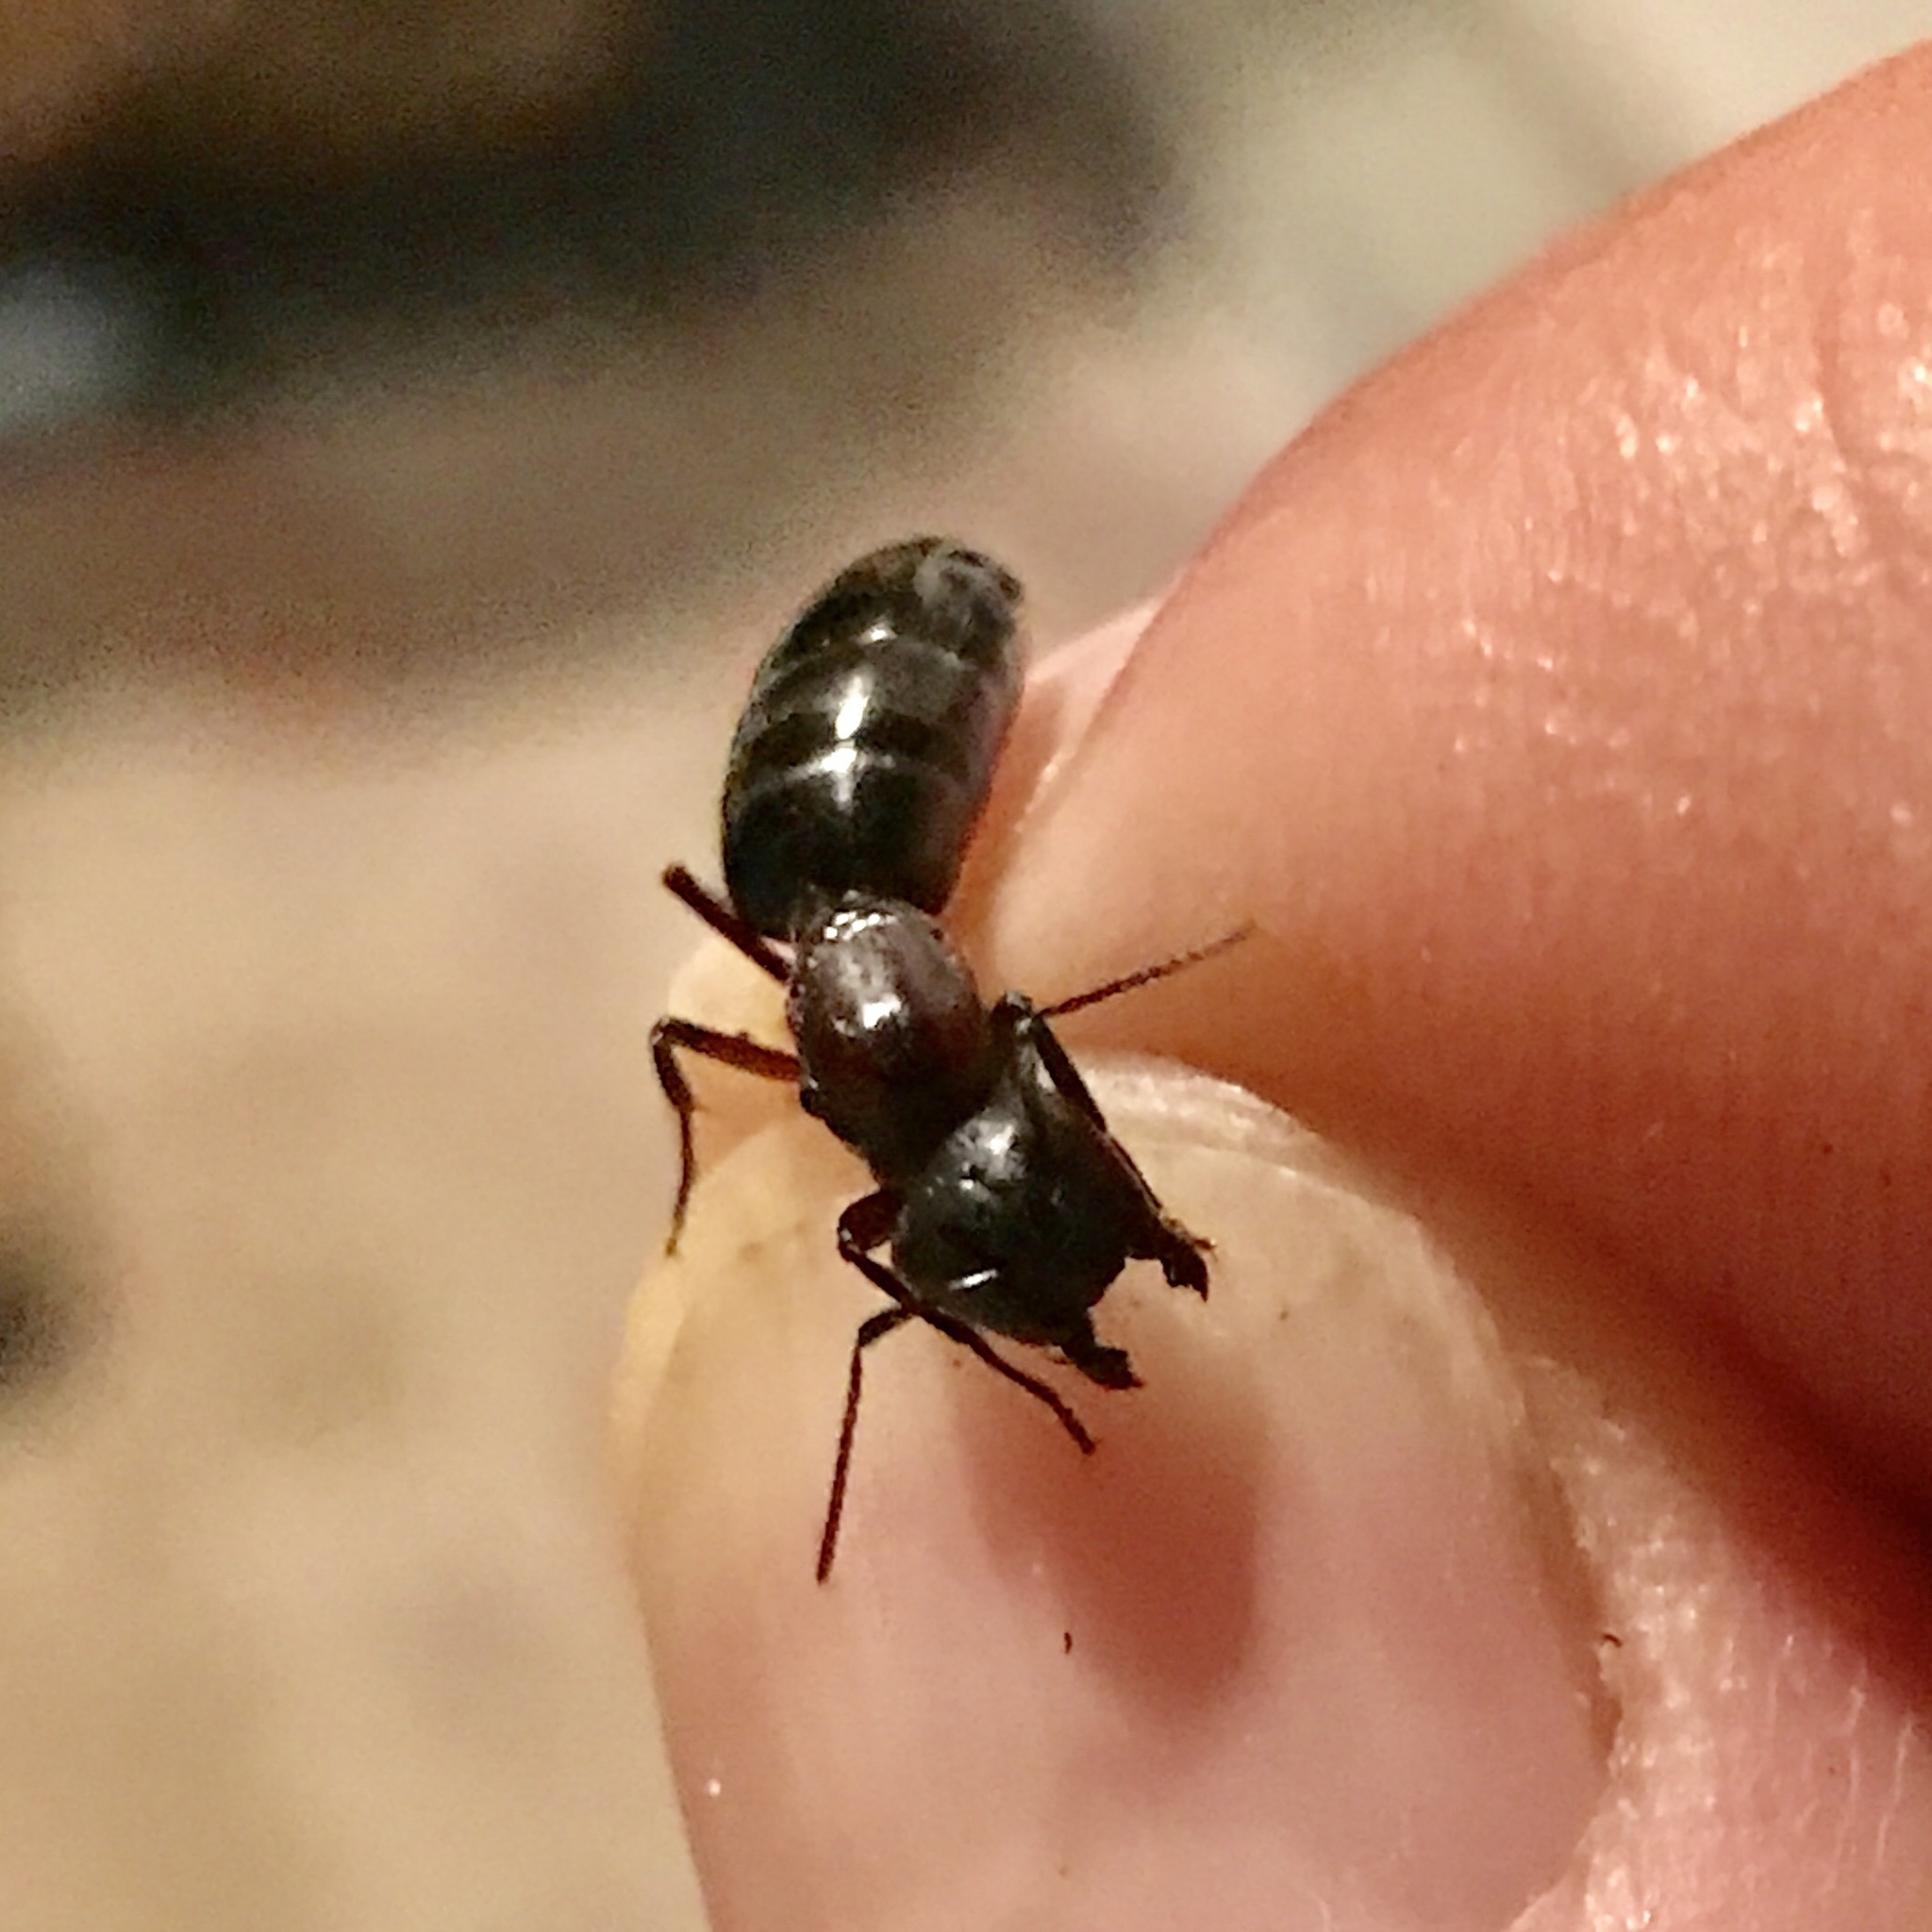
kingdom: Animalia
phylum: Arthropoda
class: Insecta
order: Hymenoptera
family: Formicidae
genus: Camponotus
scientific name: Camponotus novaeboracensis
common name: New york carpenter ant
